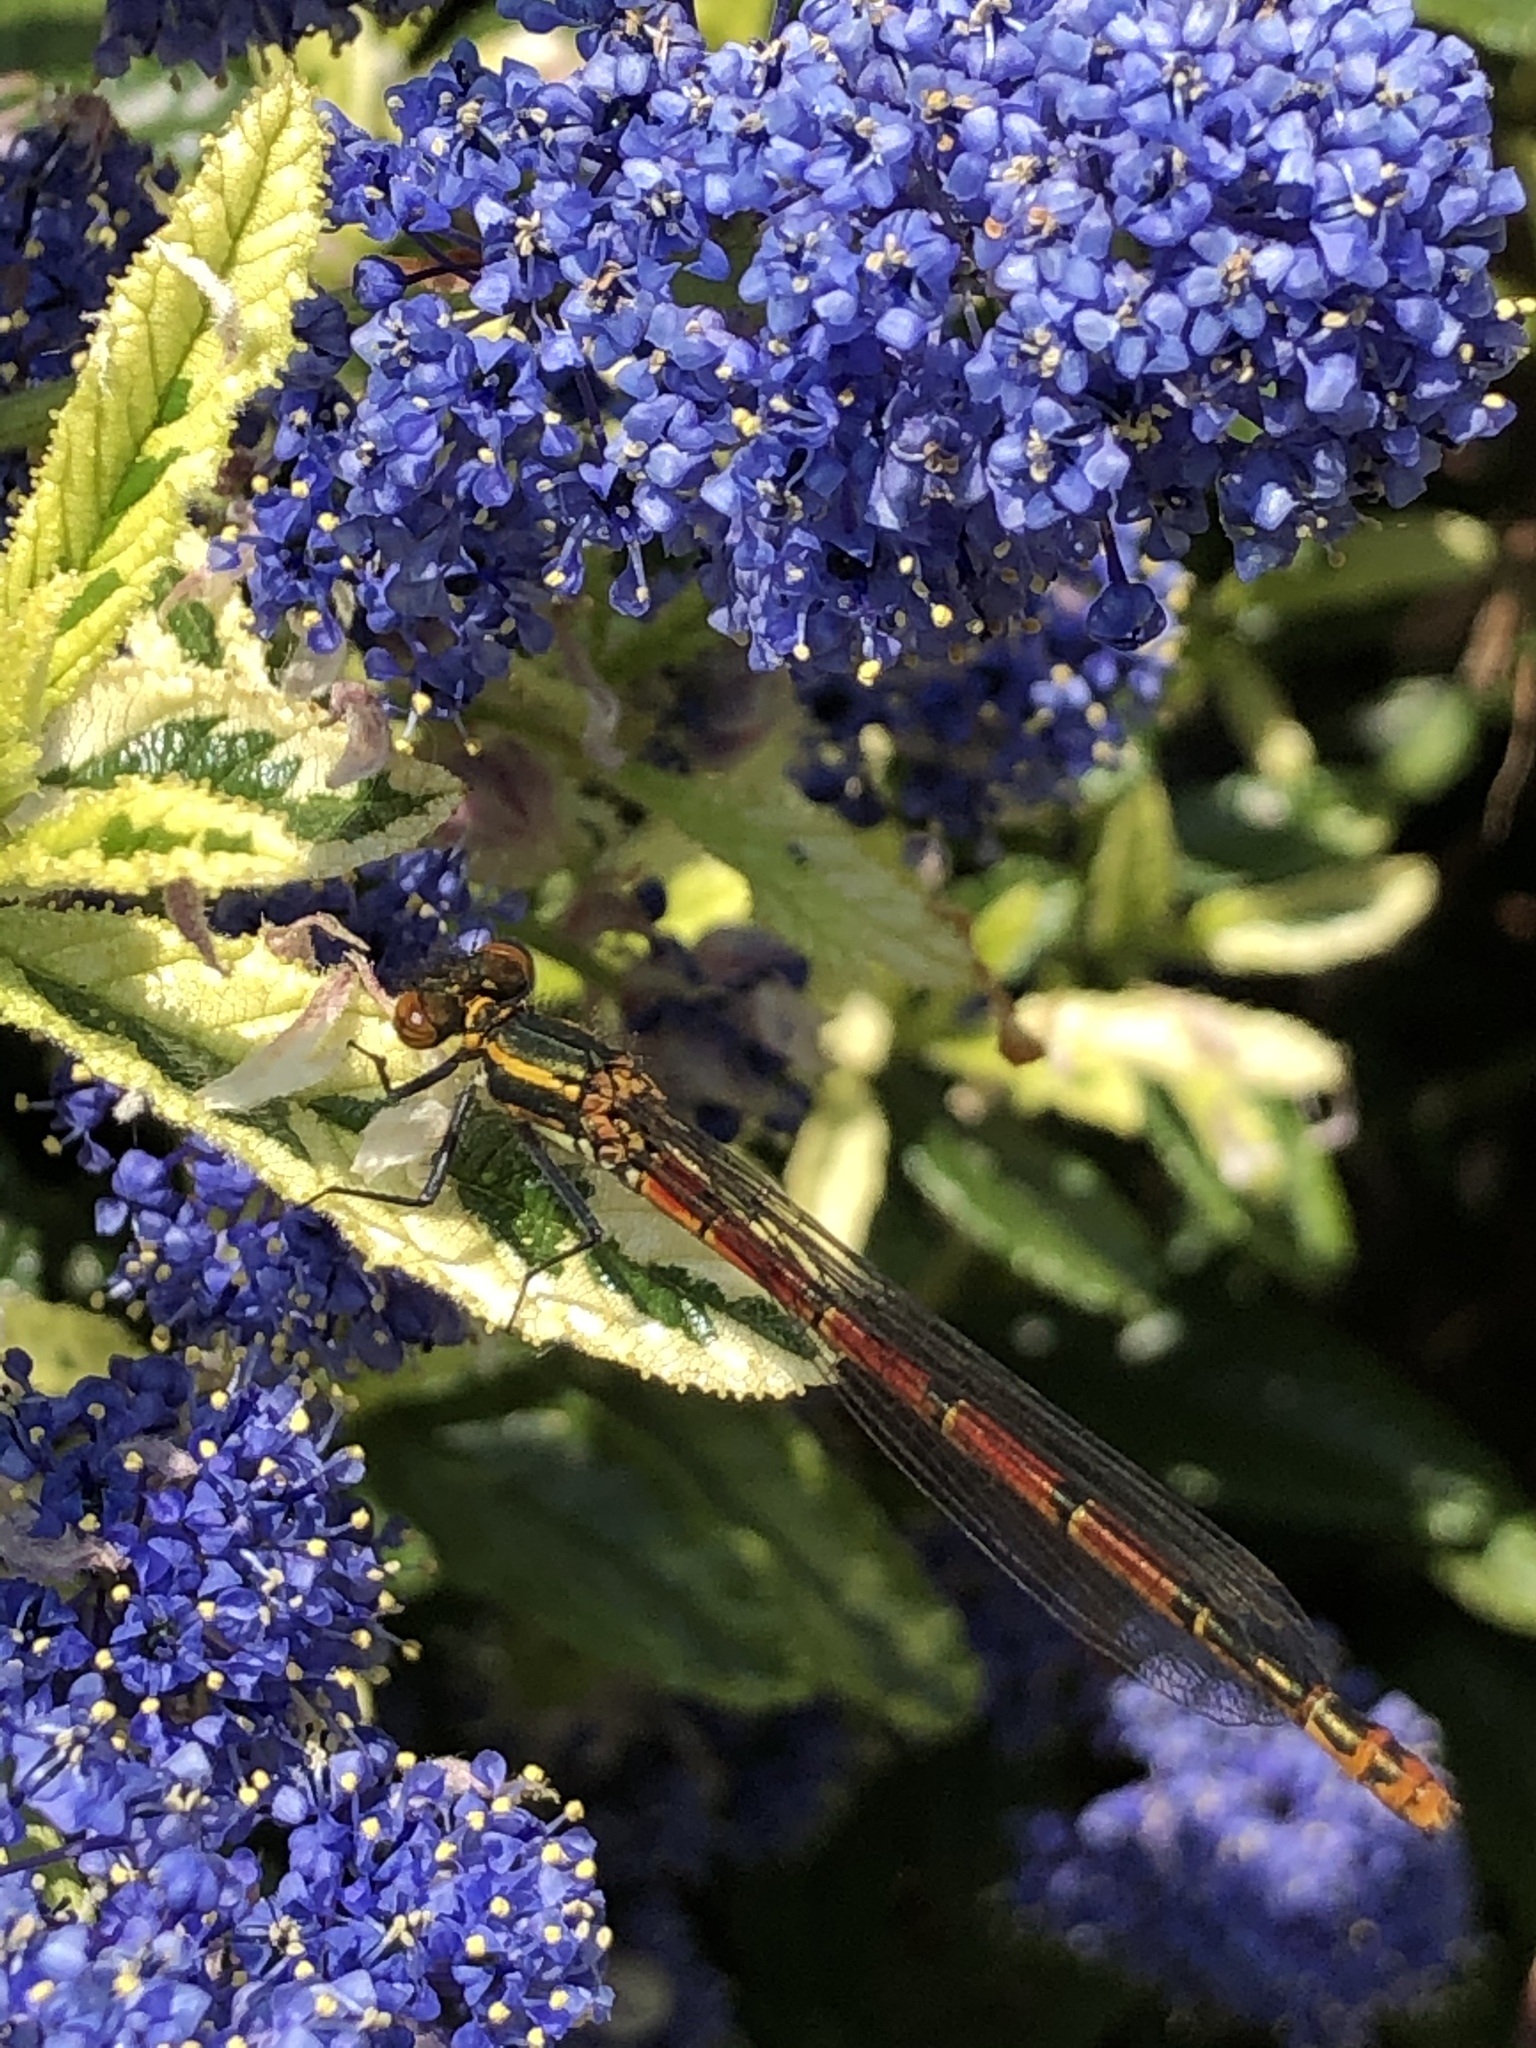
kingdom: Animalia
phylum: Arthropoda
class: Insecta
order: Odonata
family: Coenagrionidae
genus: Pyrrhosoma
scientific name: Pyrrhosoma nymphula
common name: Large red damsel
